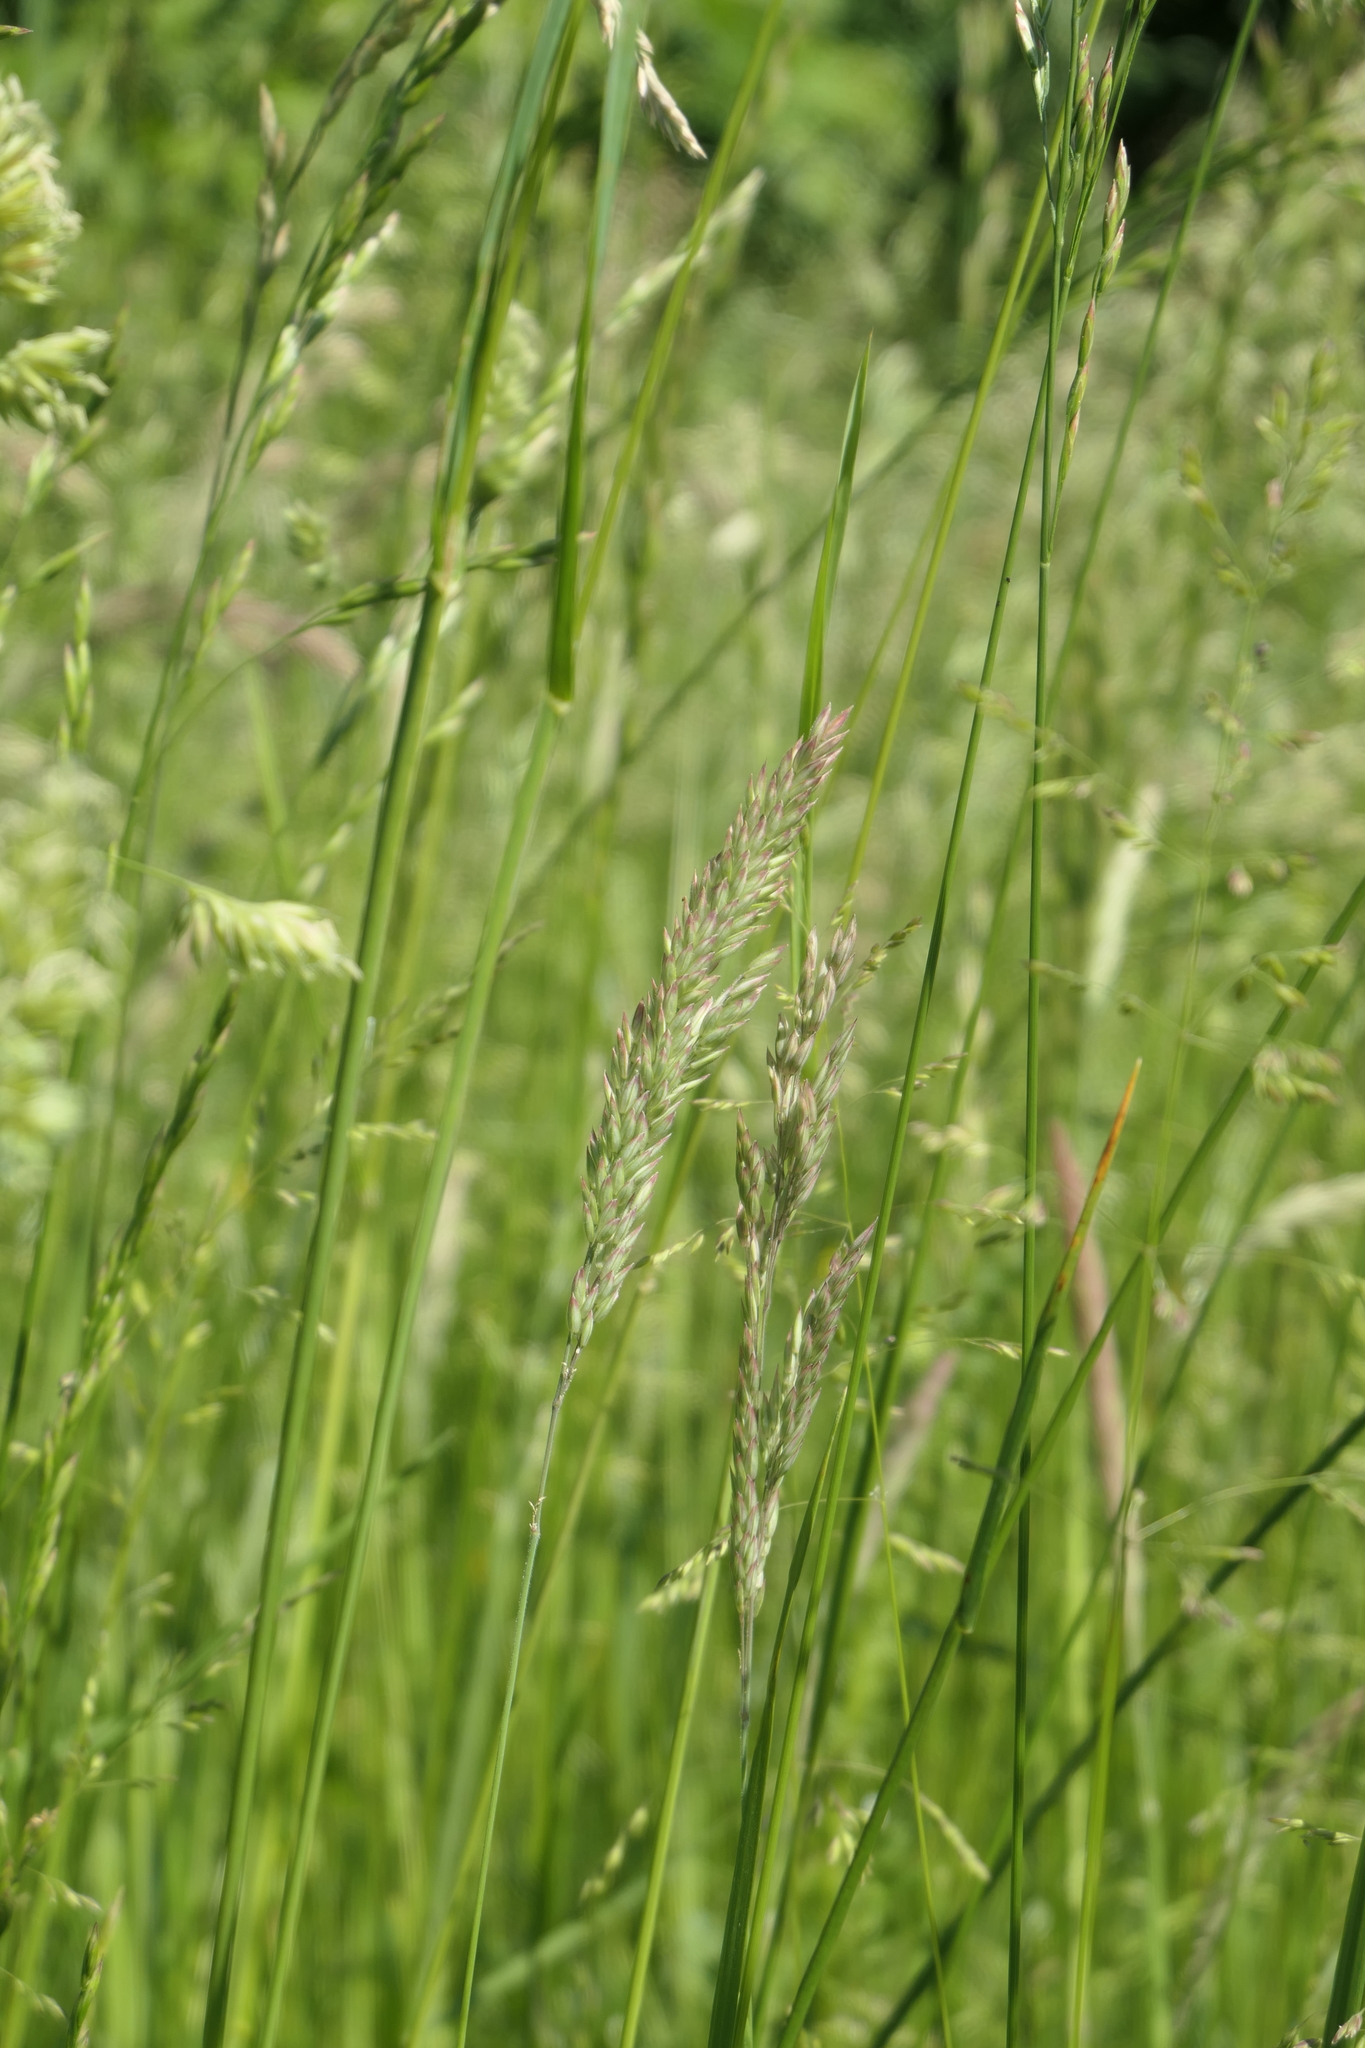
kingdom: Plantae
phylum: Tracheophyta
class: Liliopsida
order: Poales
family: Poaceae
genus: Holcus
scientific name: Holcus lanatus
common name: Yorkshire-fog
